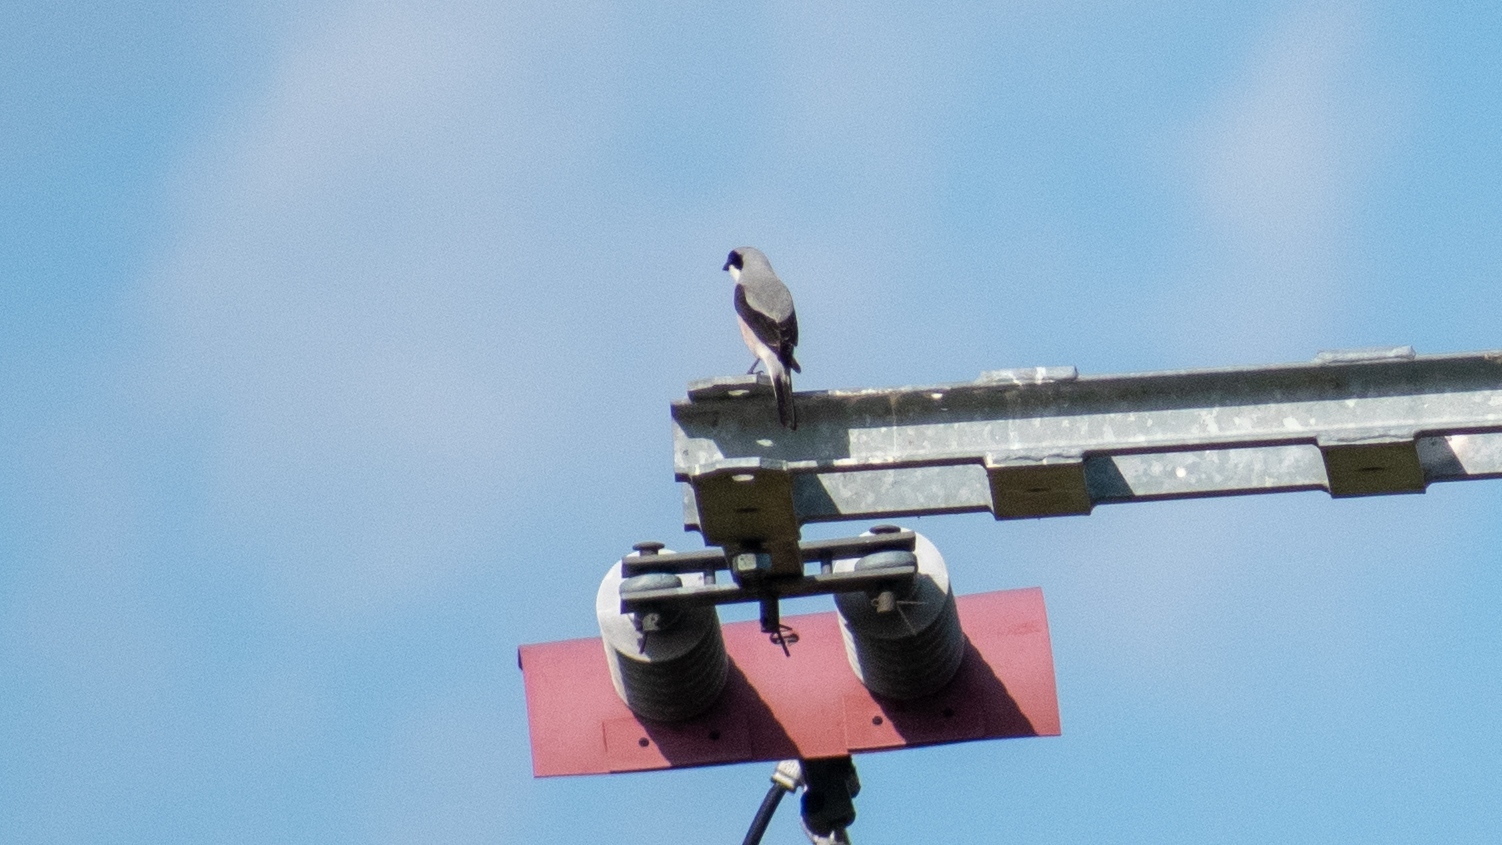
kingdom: Animalia
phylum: Chordata
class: Aves
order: Passeriformes
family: Laniidae
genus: Lanius
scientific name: Lanius minor
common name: Lesser grey shrike
